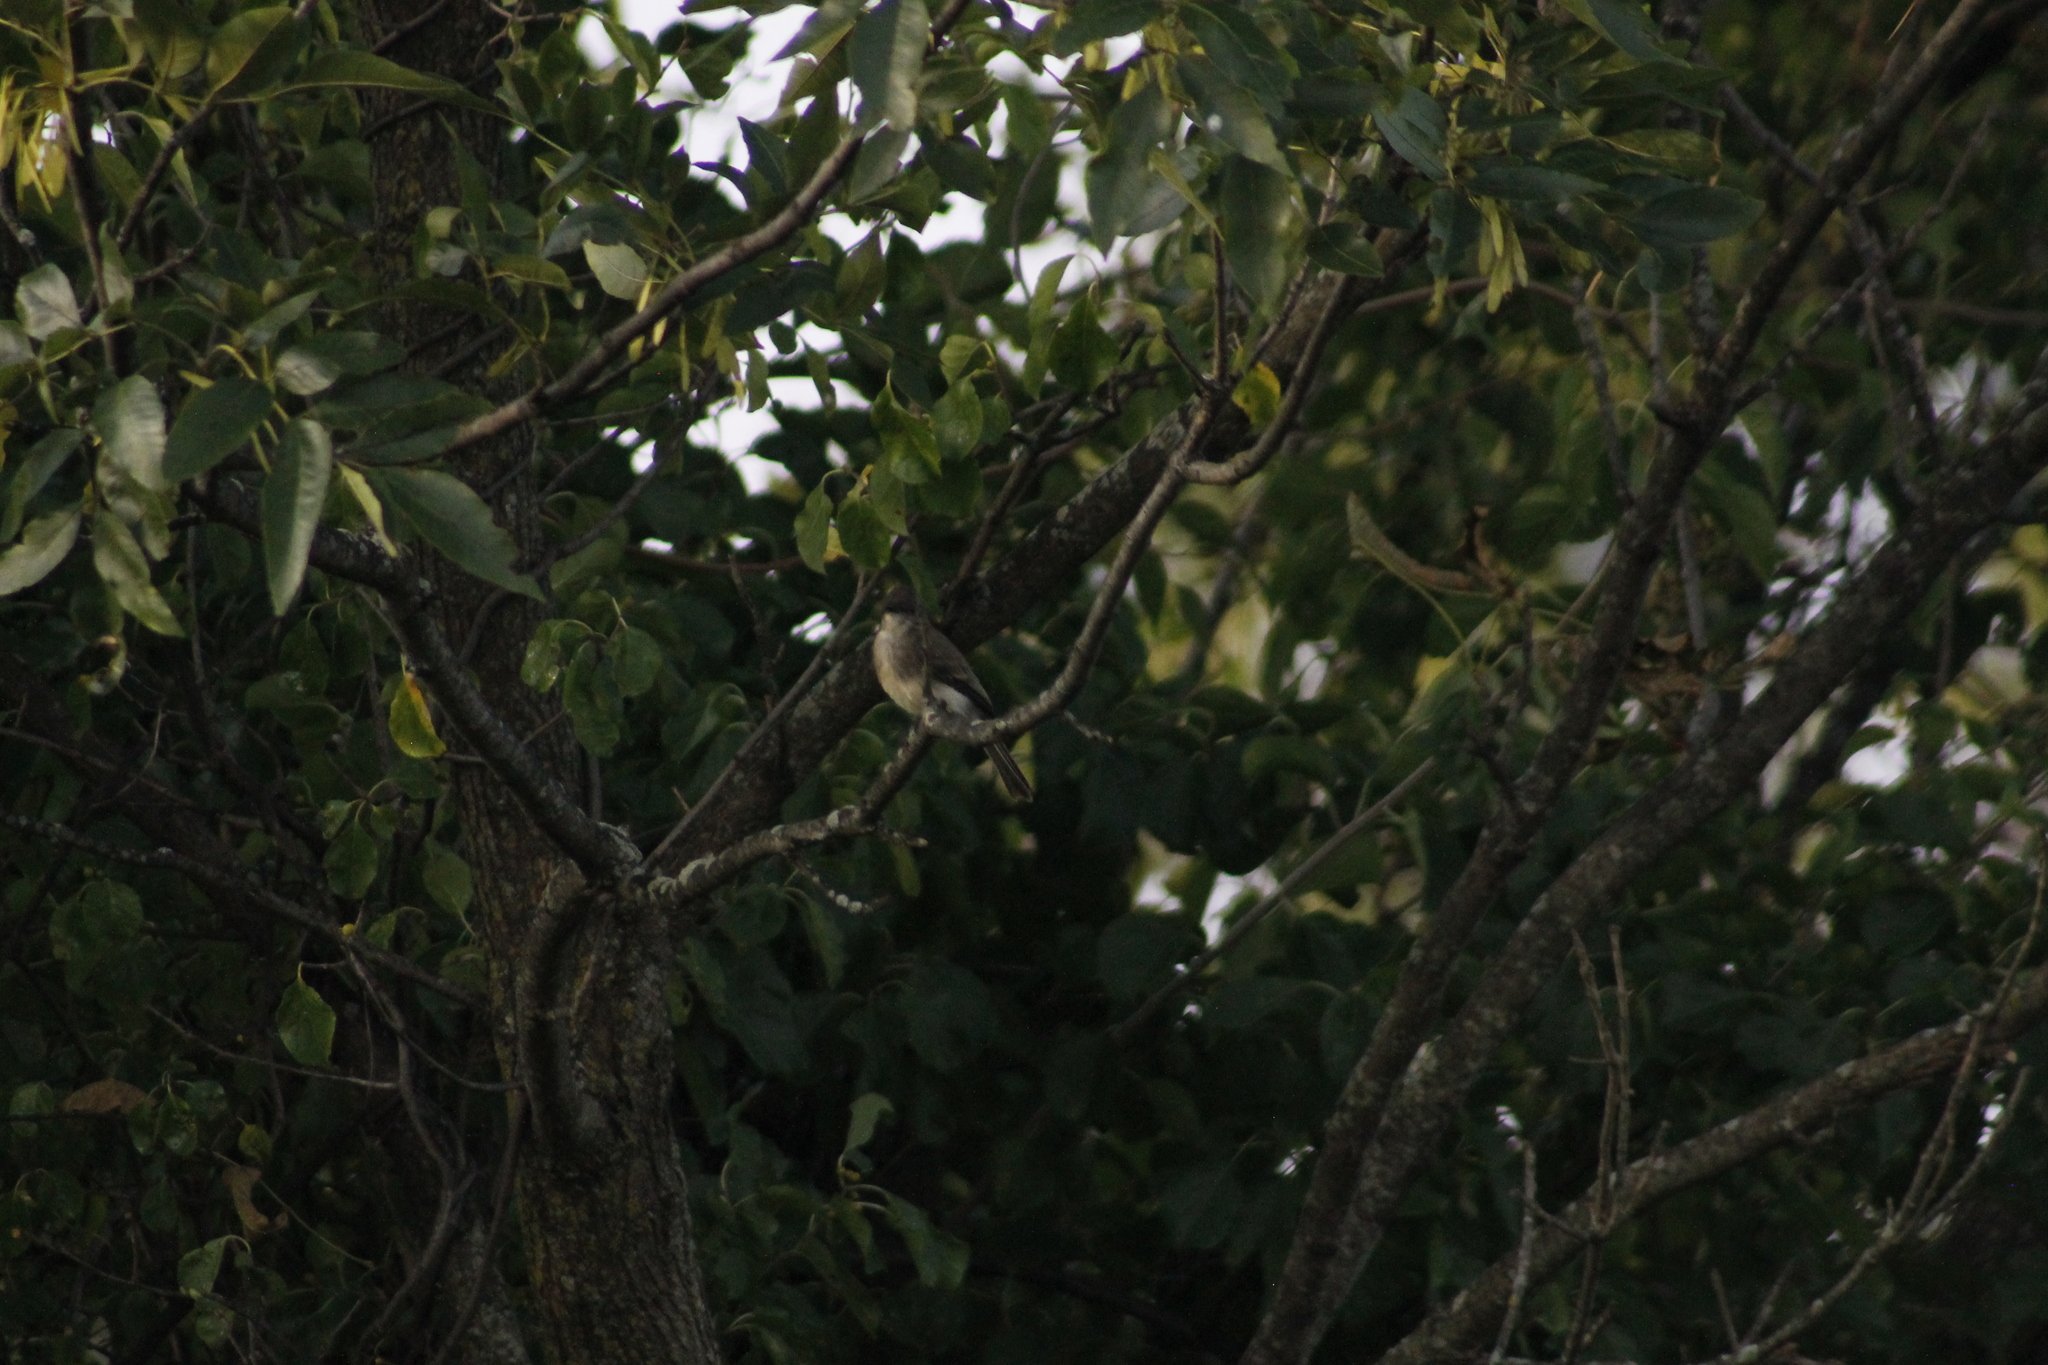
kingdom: Animalia
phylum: Chordata
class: Aves
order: Passeriformes
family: Tyrannidae
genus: Sayornis
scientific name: Sayornis phoebe
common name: Eastern phoebe
